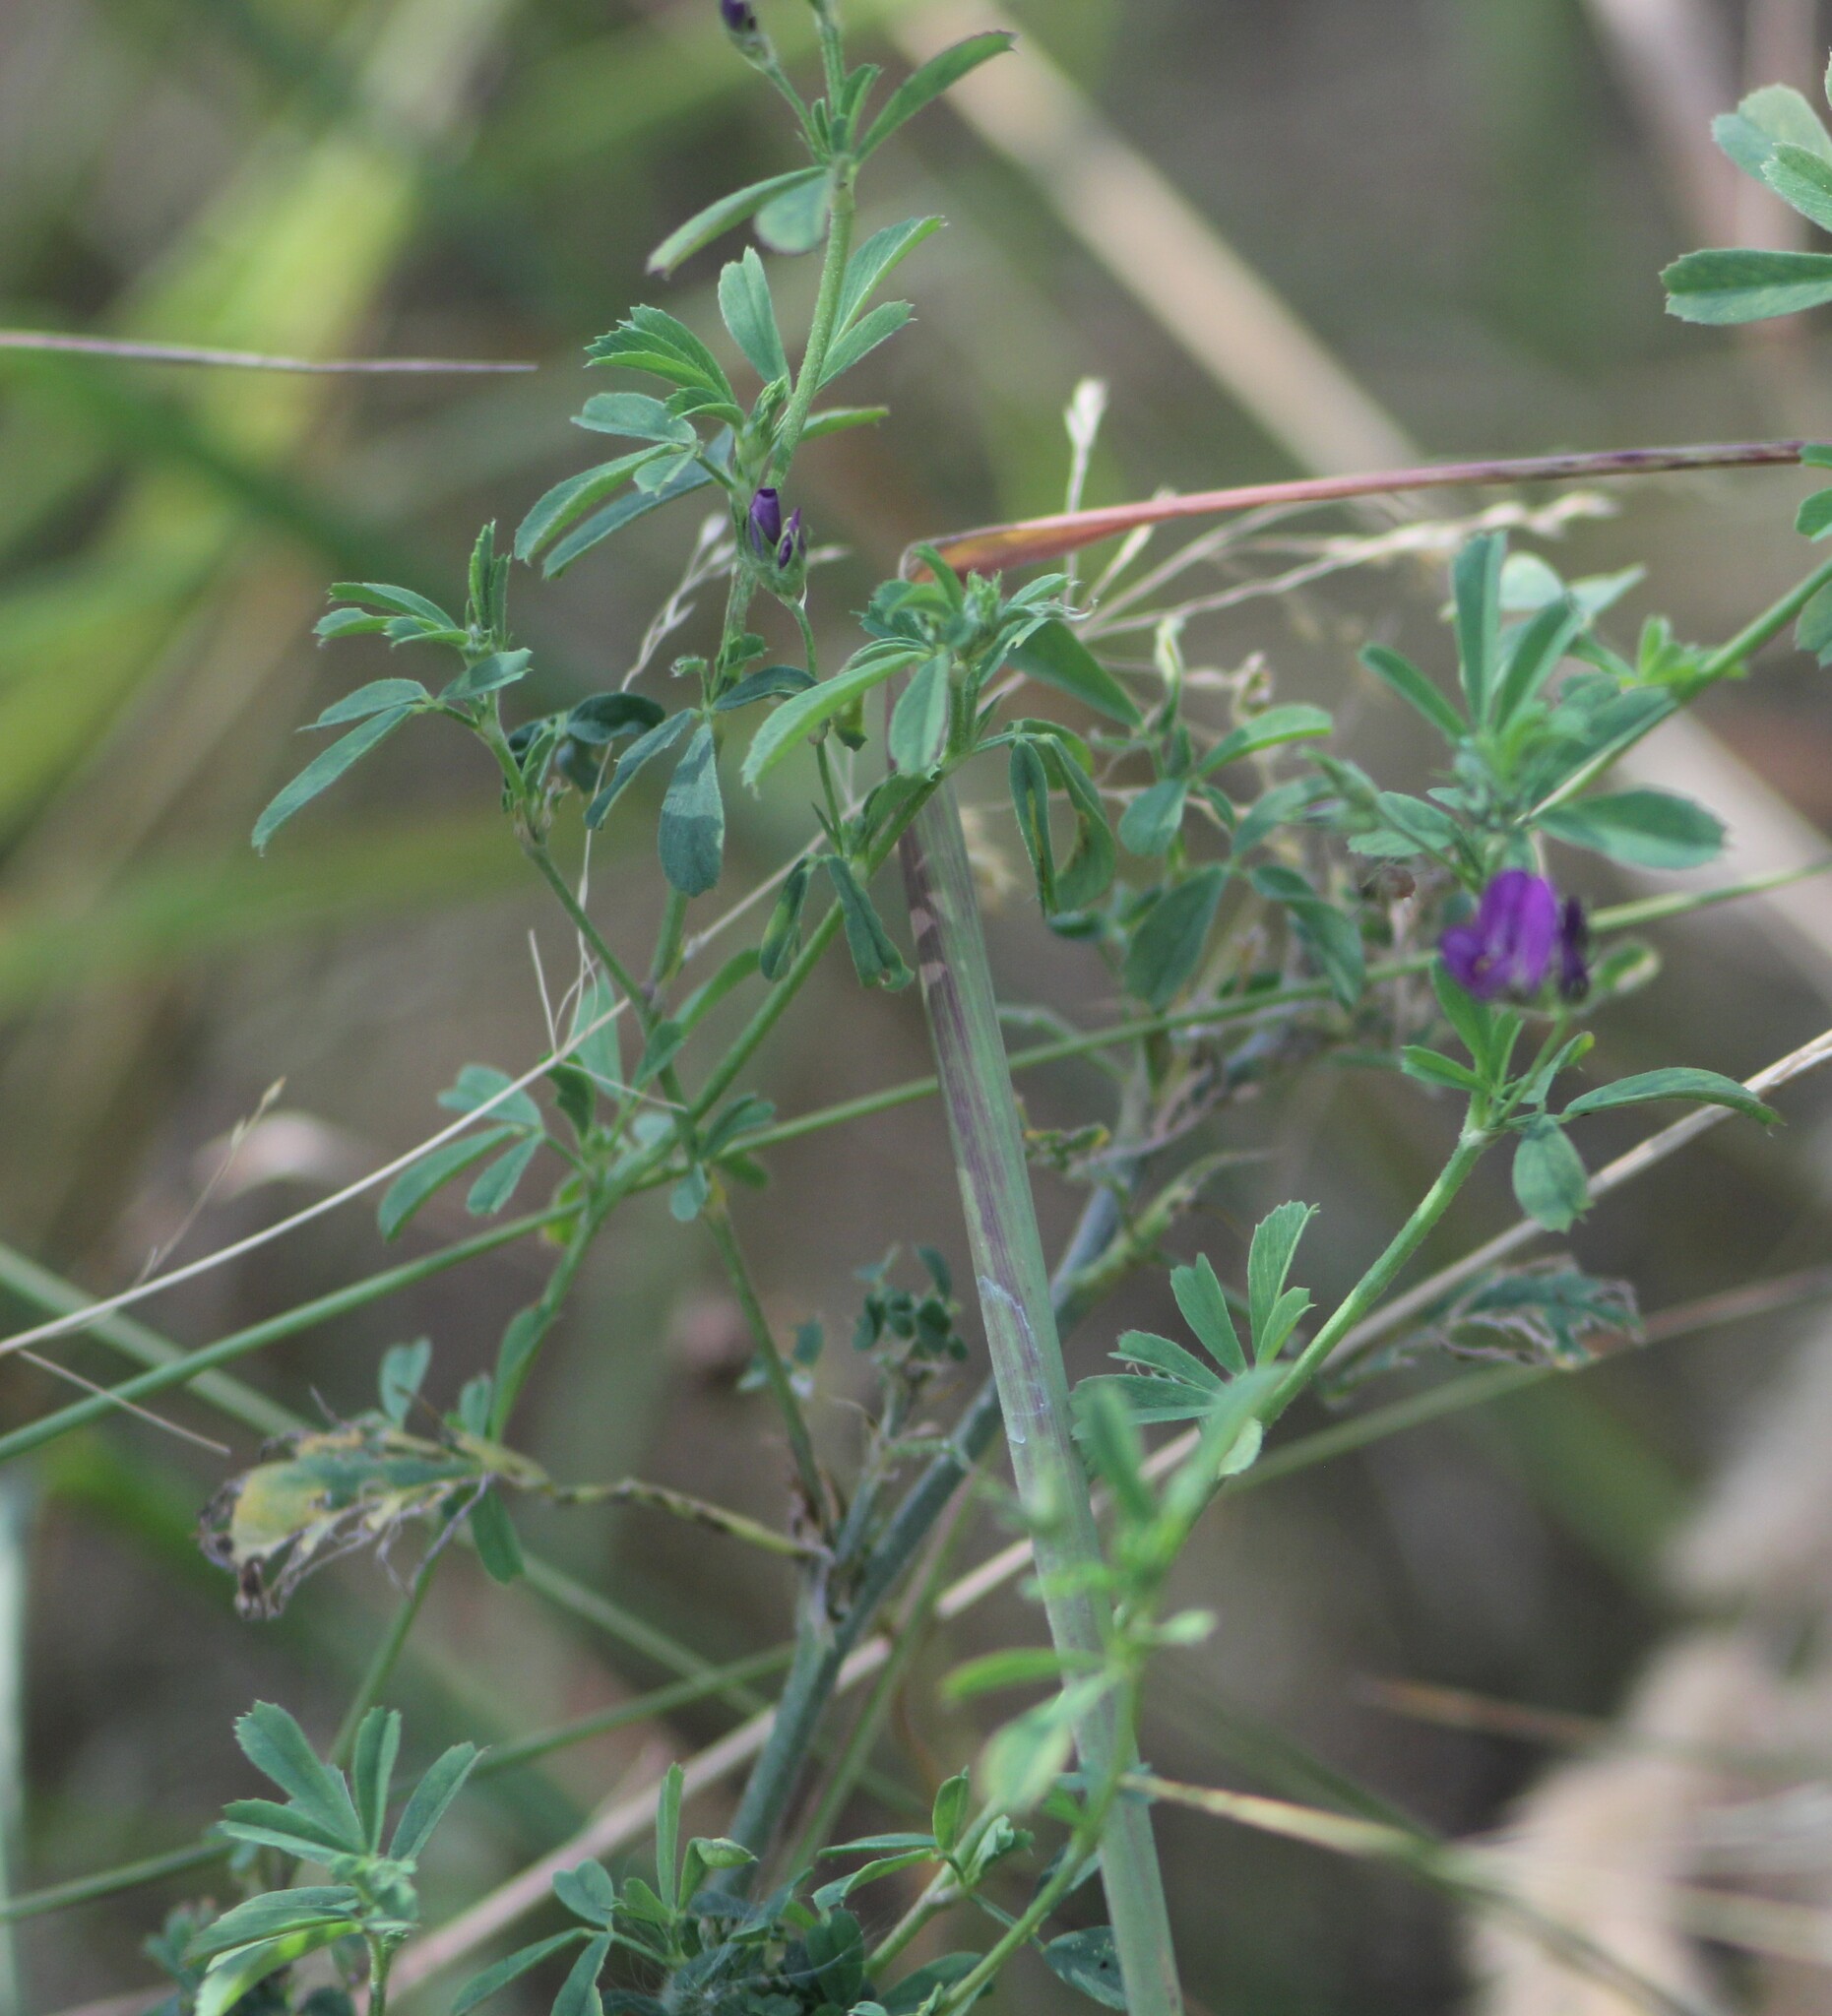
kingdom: Plantae
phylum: Tracheophyta
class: Magnoliopsida
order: Fabales
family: Fabaceae
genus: Medicago
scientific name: Medicago sativa
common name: Alfalfa
